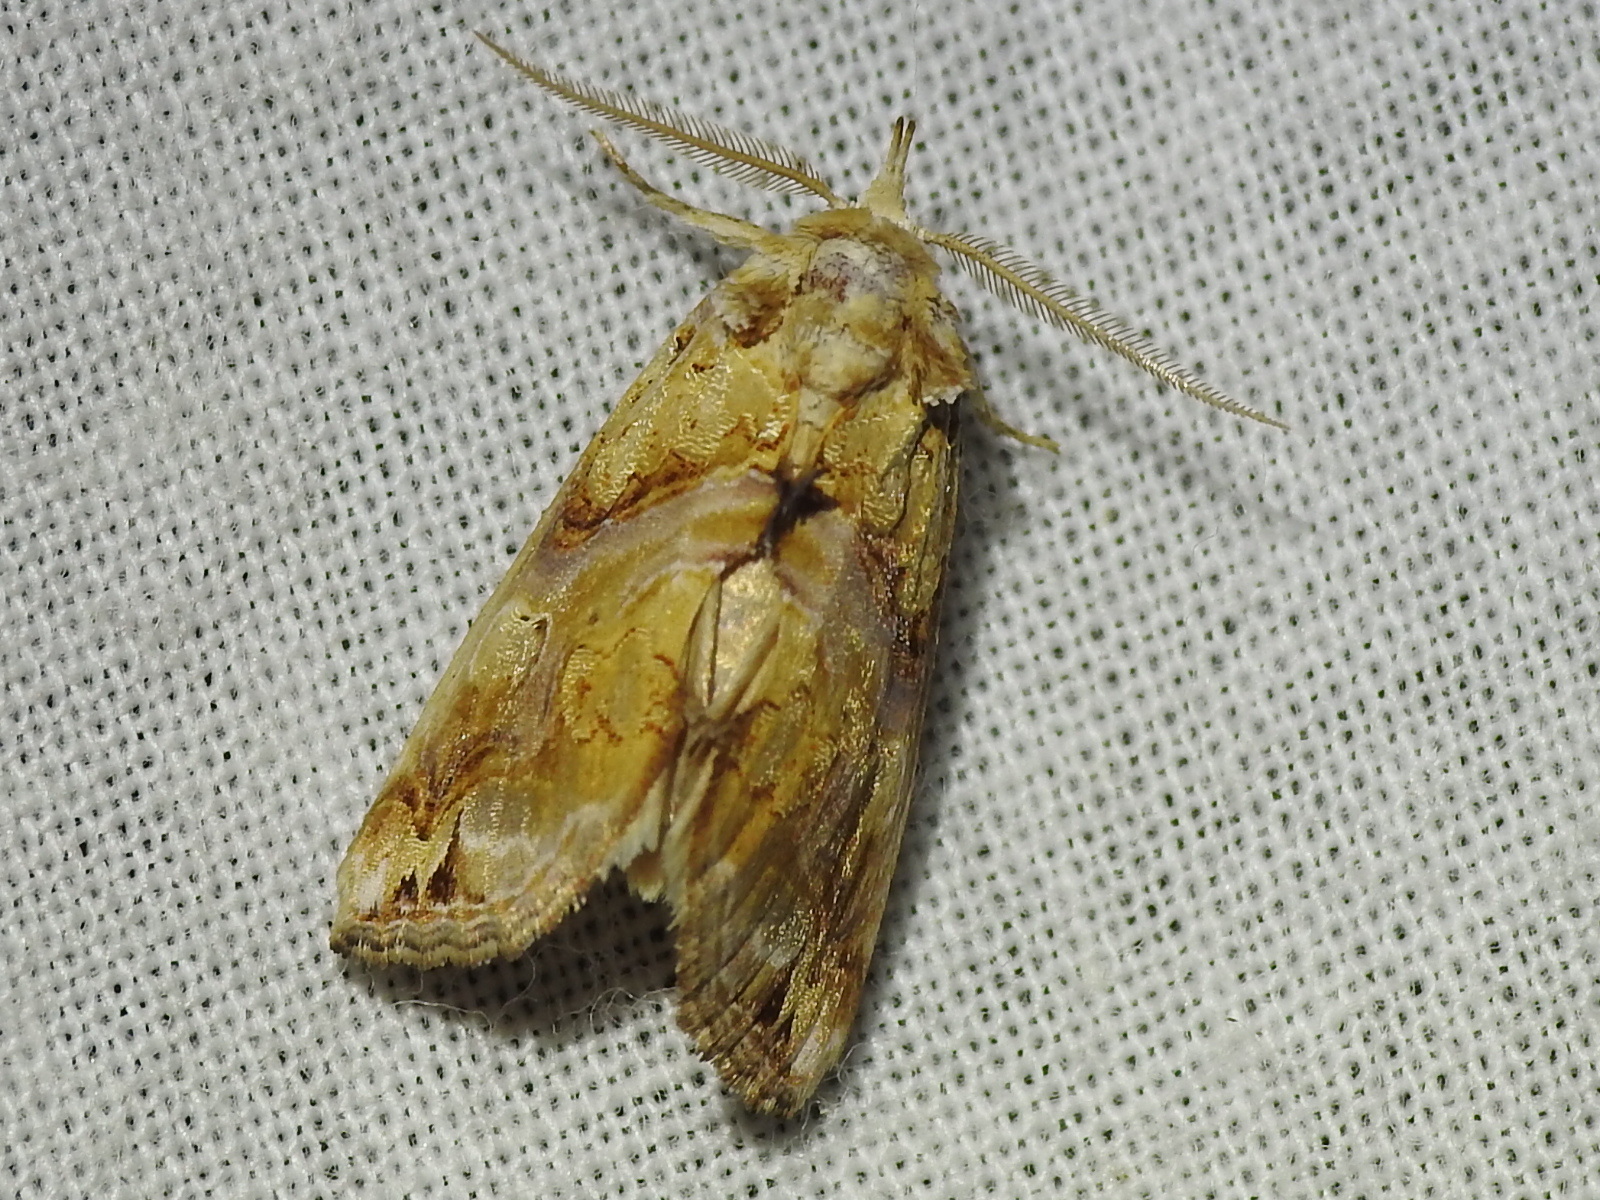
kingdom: Animalia
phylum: Arthropoda
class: Insecta
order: Lepidoptera
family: Erebidae
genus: Plusiodonta
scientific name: Plusiodonta compressipalpis
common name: Moonseed moth
